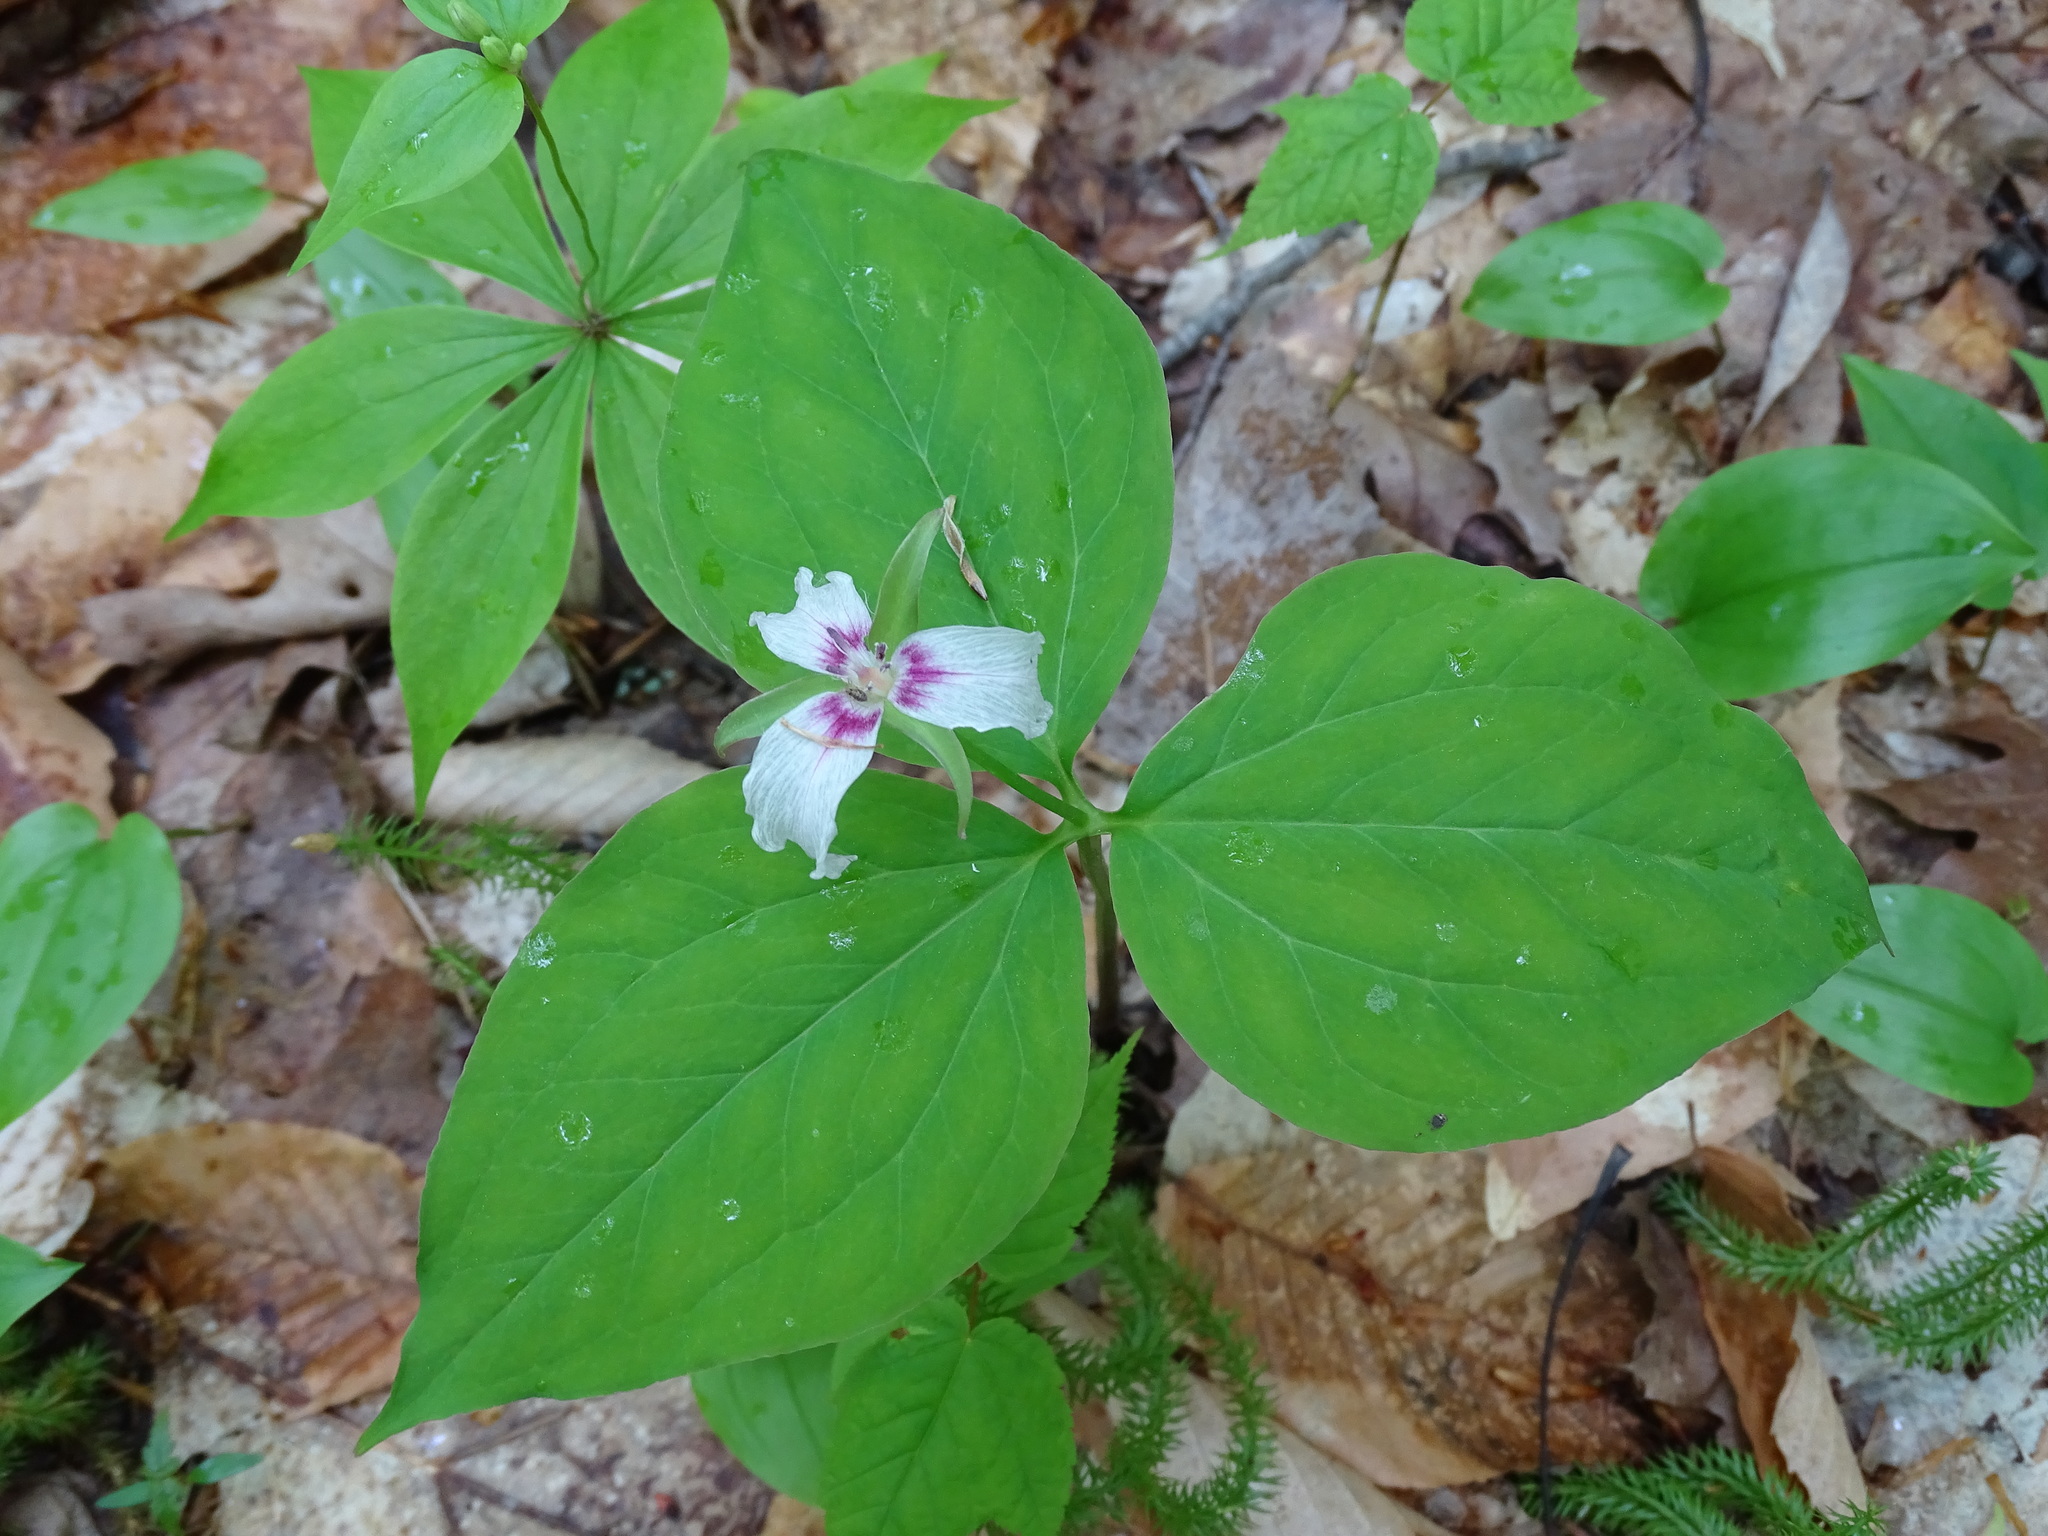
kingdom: Plantae
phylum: Tracheophyta
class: Liliopsida
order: Liliales
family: Melanthiaceae
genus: Trillium
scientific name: Trillium undulatum
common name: Paint trillium
